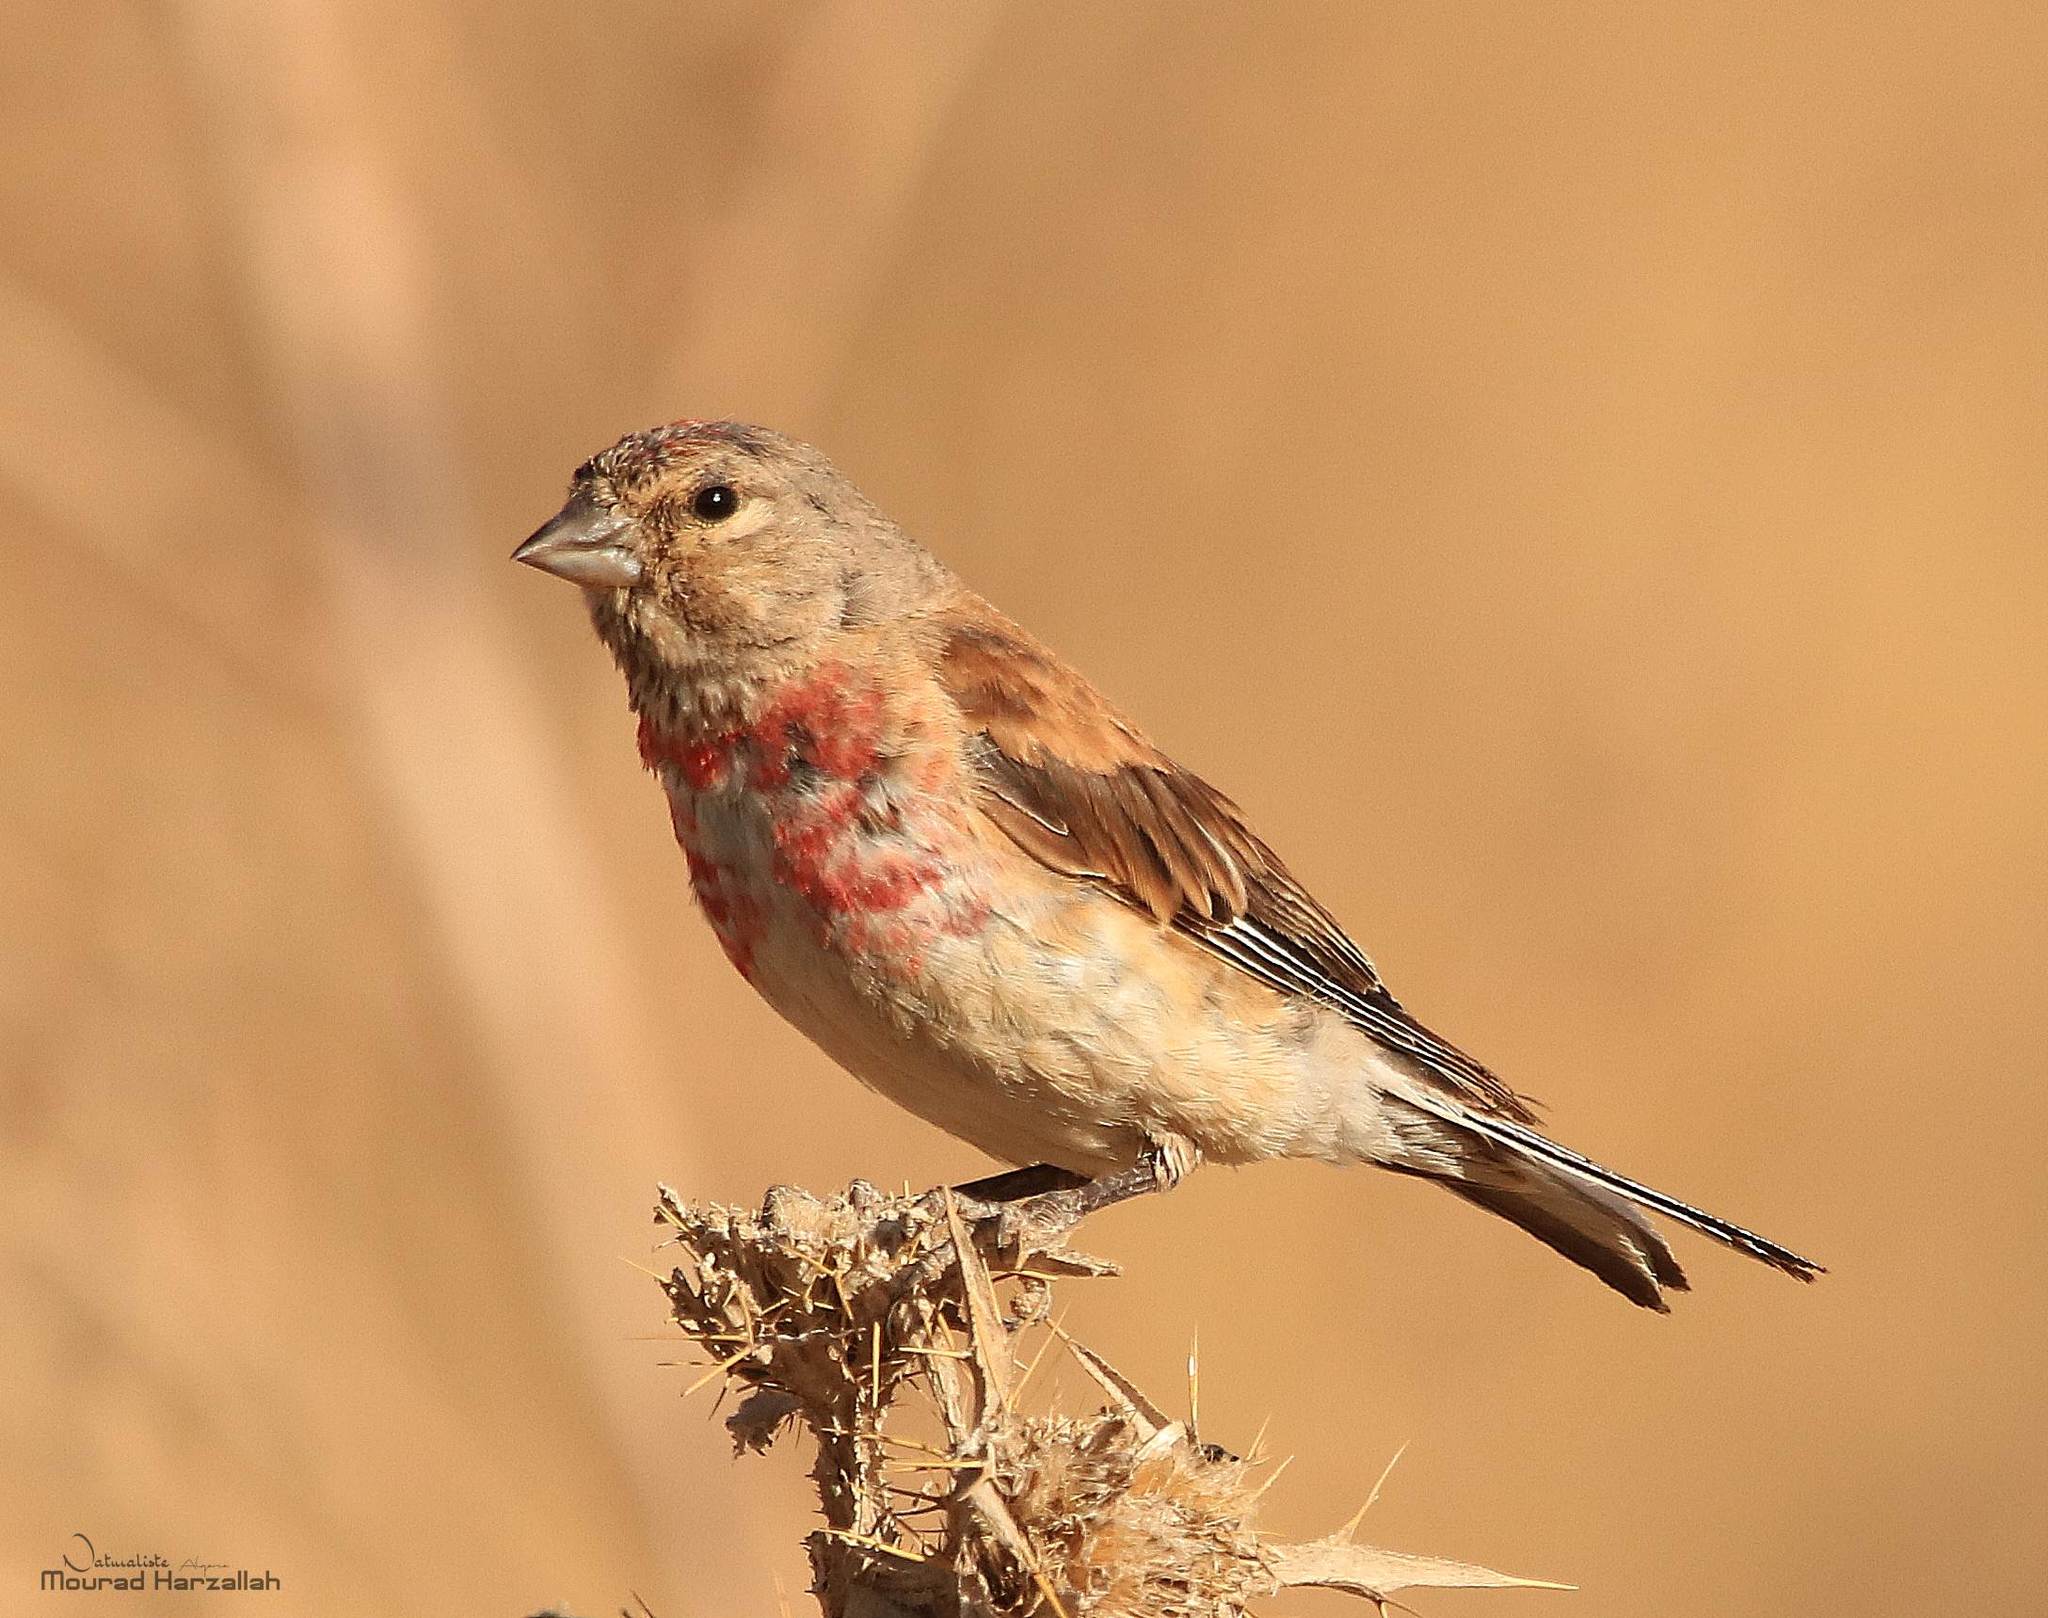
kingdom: Animalia
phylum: Chordata
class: Aves
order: Passeriformes
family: Fringillidae
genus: Linaria
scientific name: Linaria cannabina
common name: Common linnet
